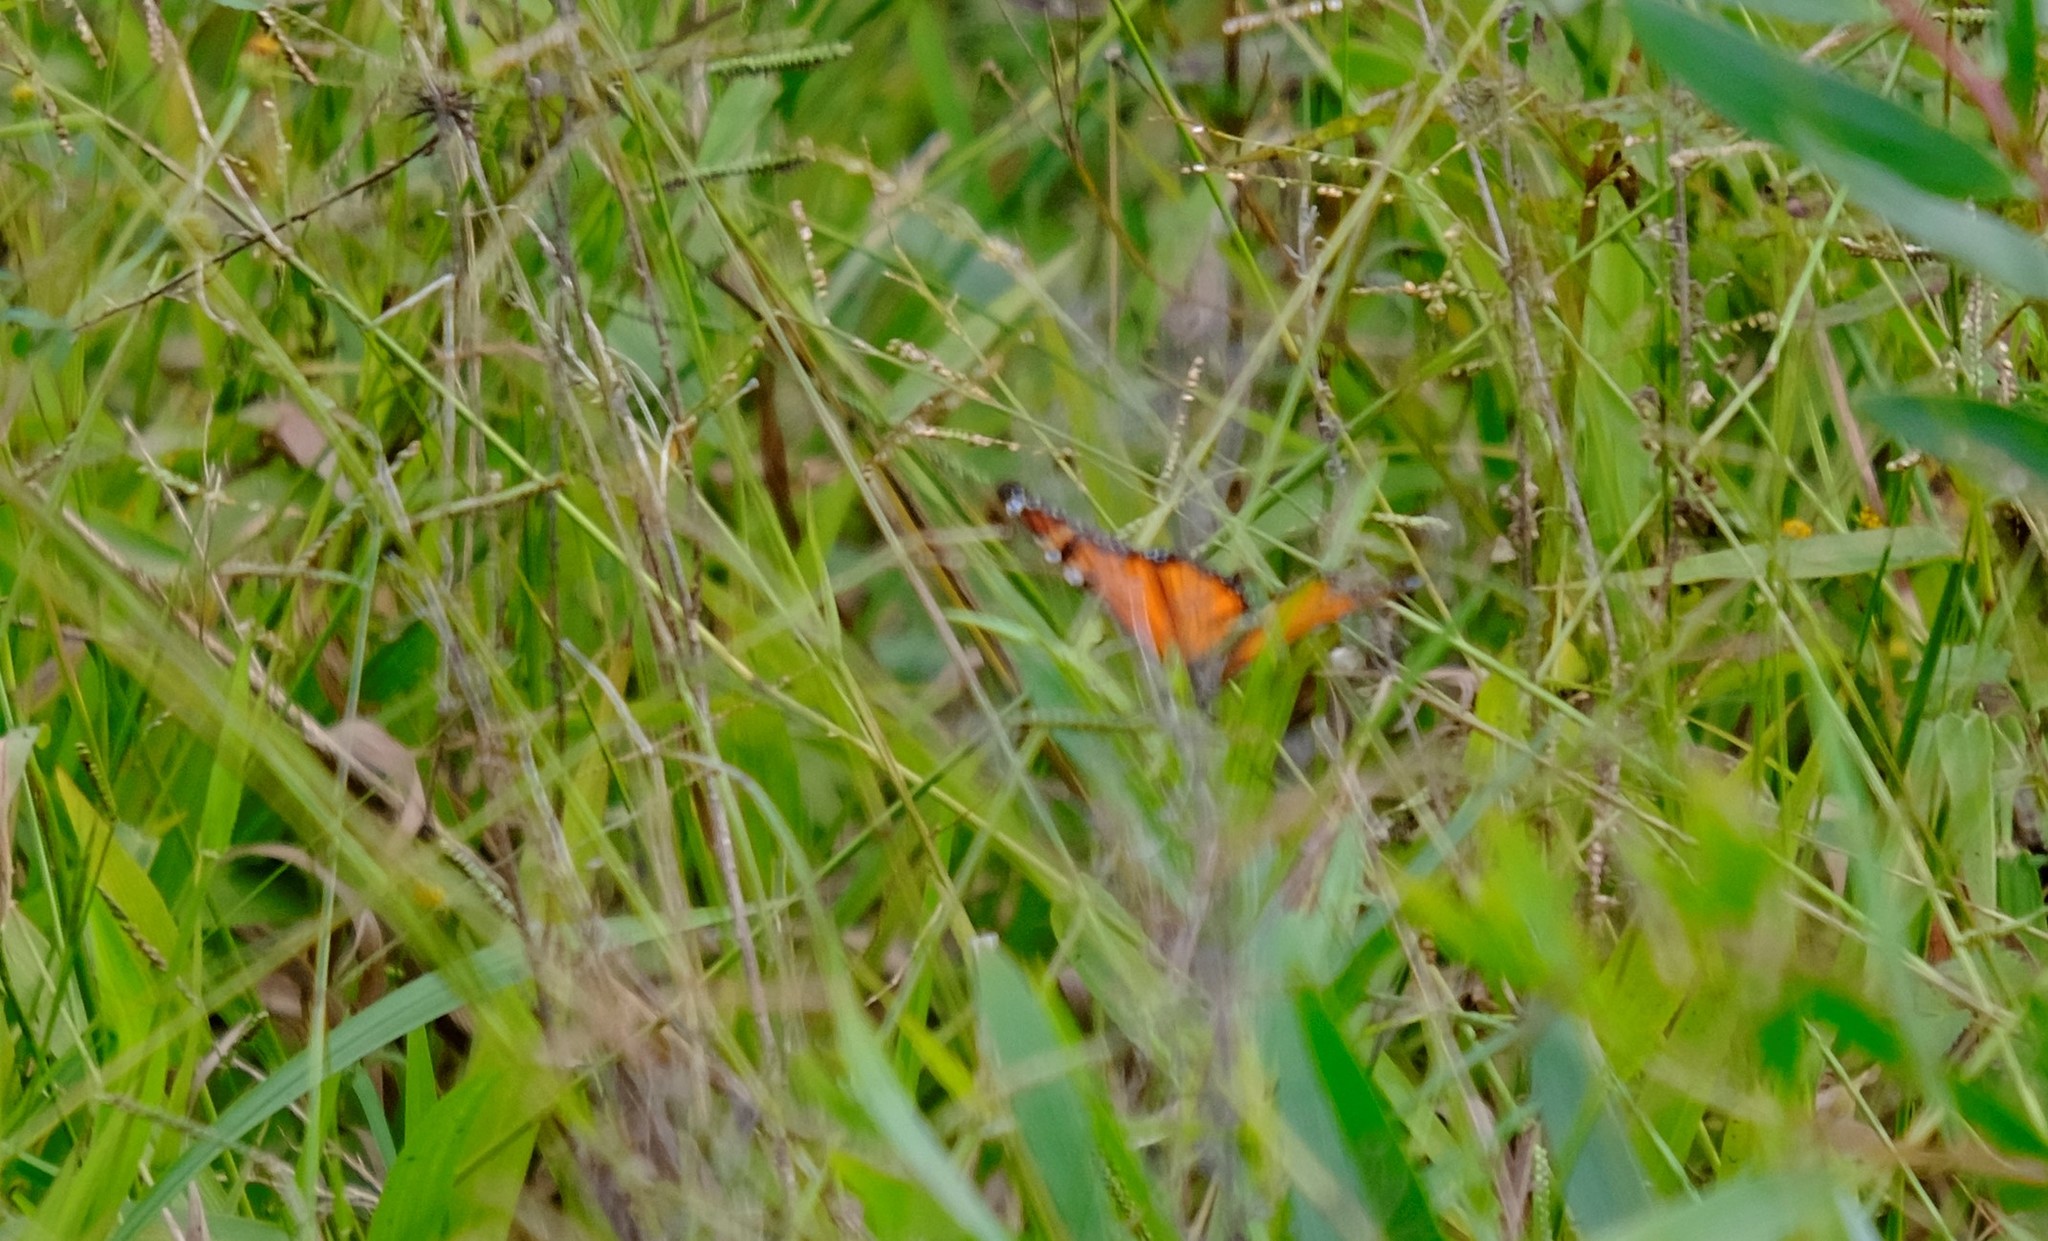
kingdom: Animalia
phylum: Arthropoda
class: Insecta
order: Lepidoptera
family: Nymphalidae
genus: Danaus
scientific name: Danaus plexippus
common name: Monarch
